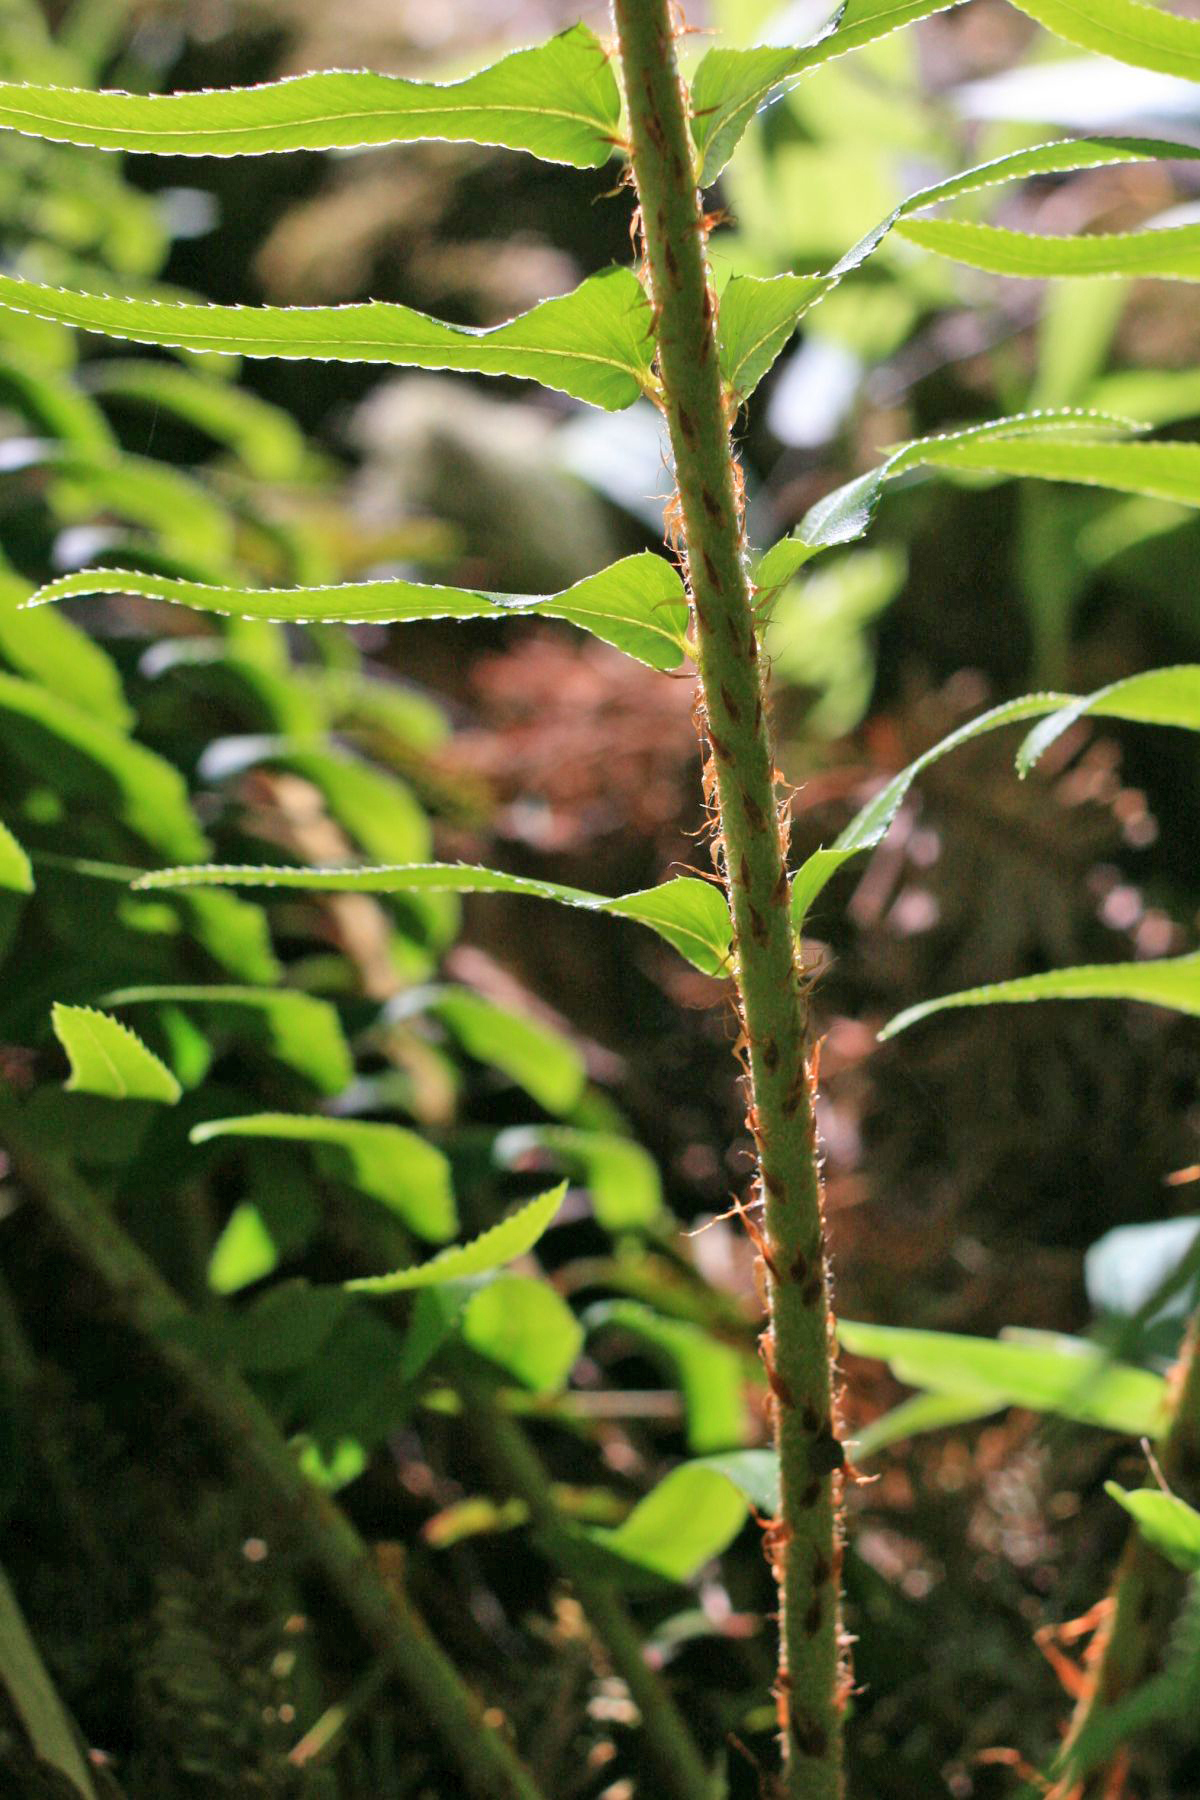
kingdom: Plantae
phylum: Tracheophyta
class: Polypodiopsida
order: Polypodiales
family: Dryopteridaceae
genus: Polystichum
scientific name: Polystichum munitum
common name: Western sword-fern
